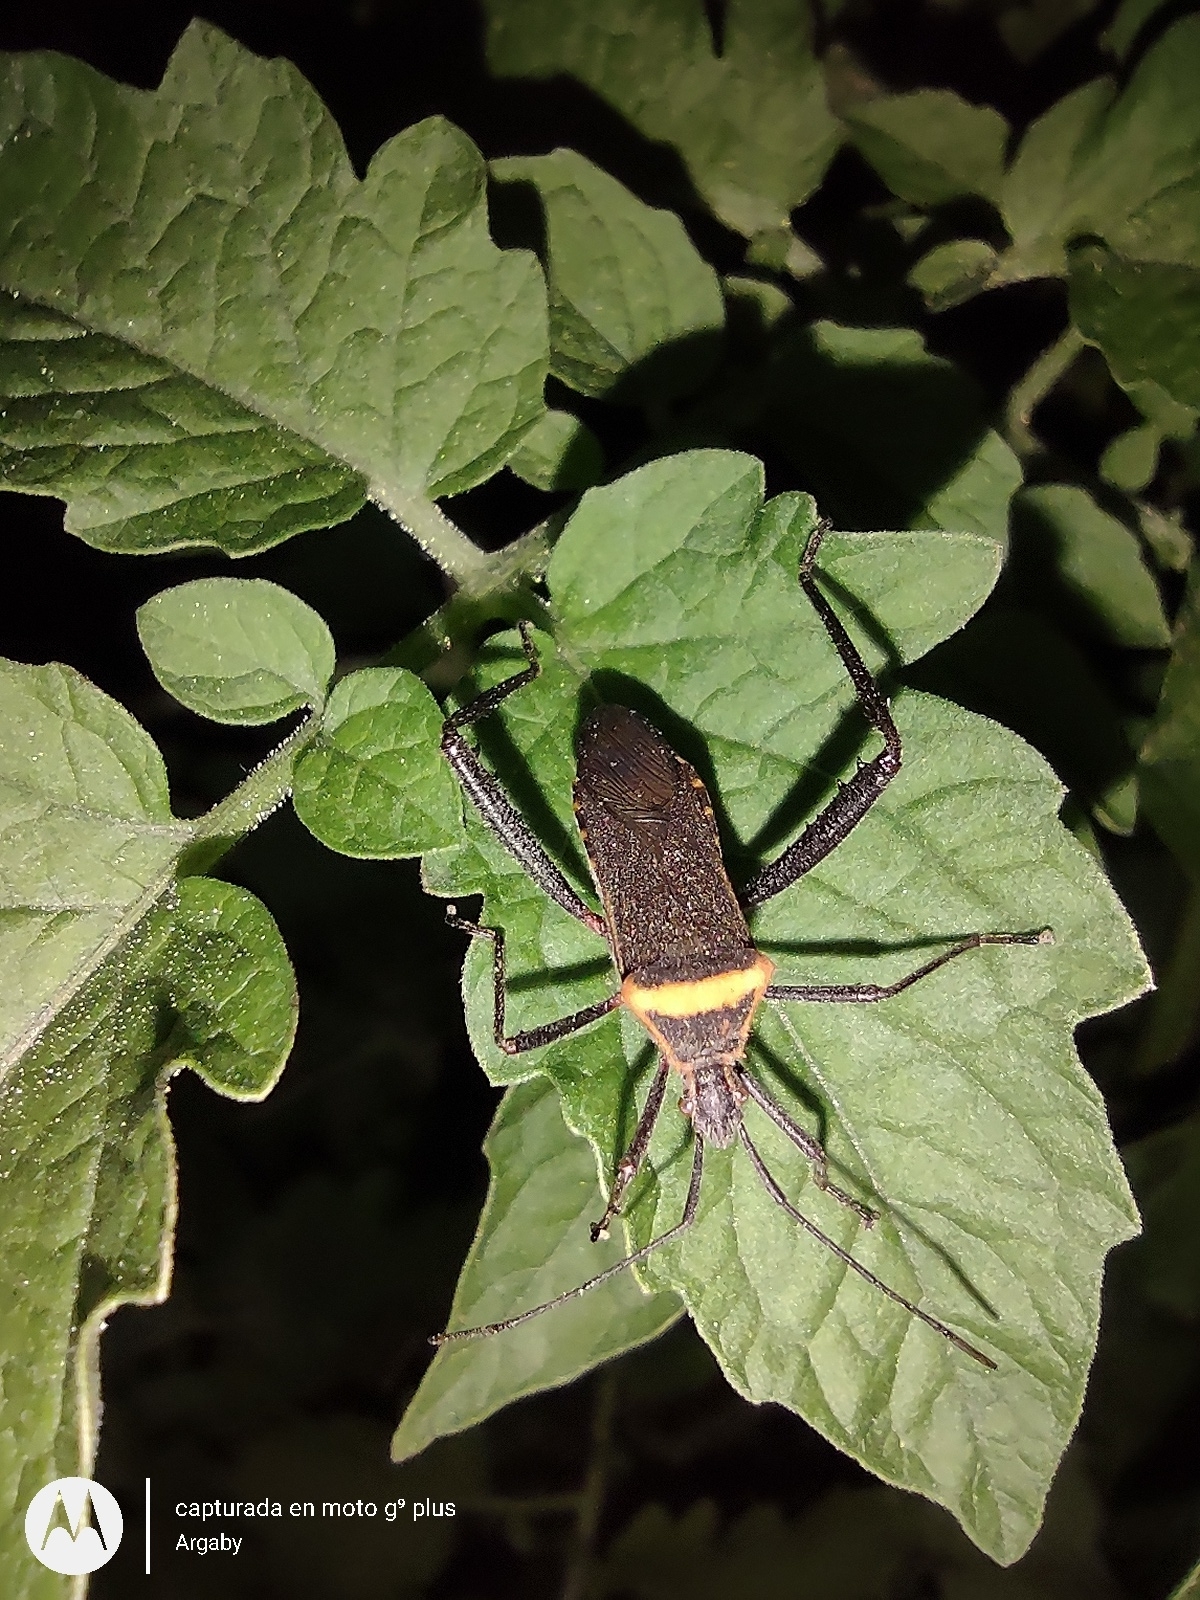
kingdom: Animalia
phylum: Arthropoda
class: Insecta
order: Hemiptera
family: Coreidae
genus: Phthiacnemia
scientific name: Phthiacnemia picta
